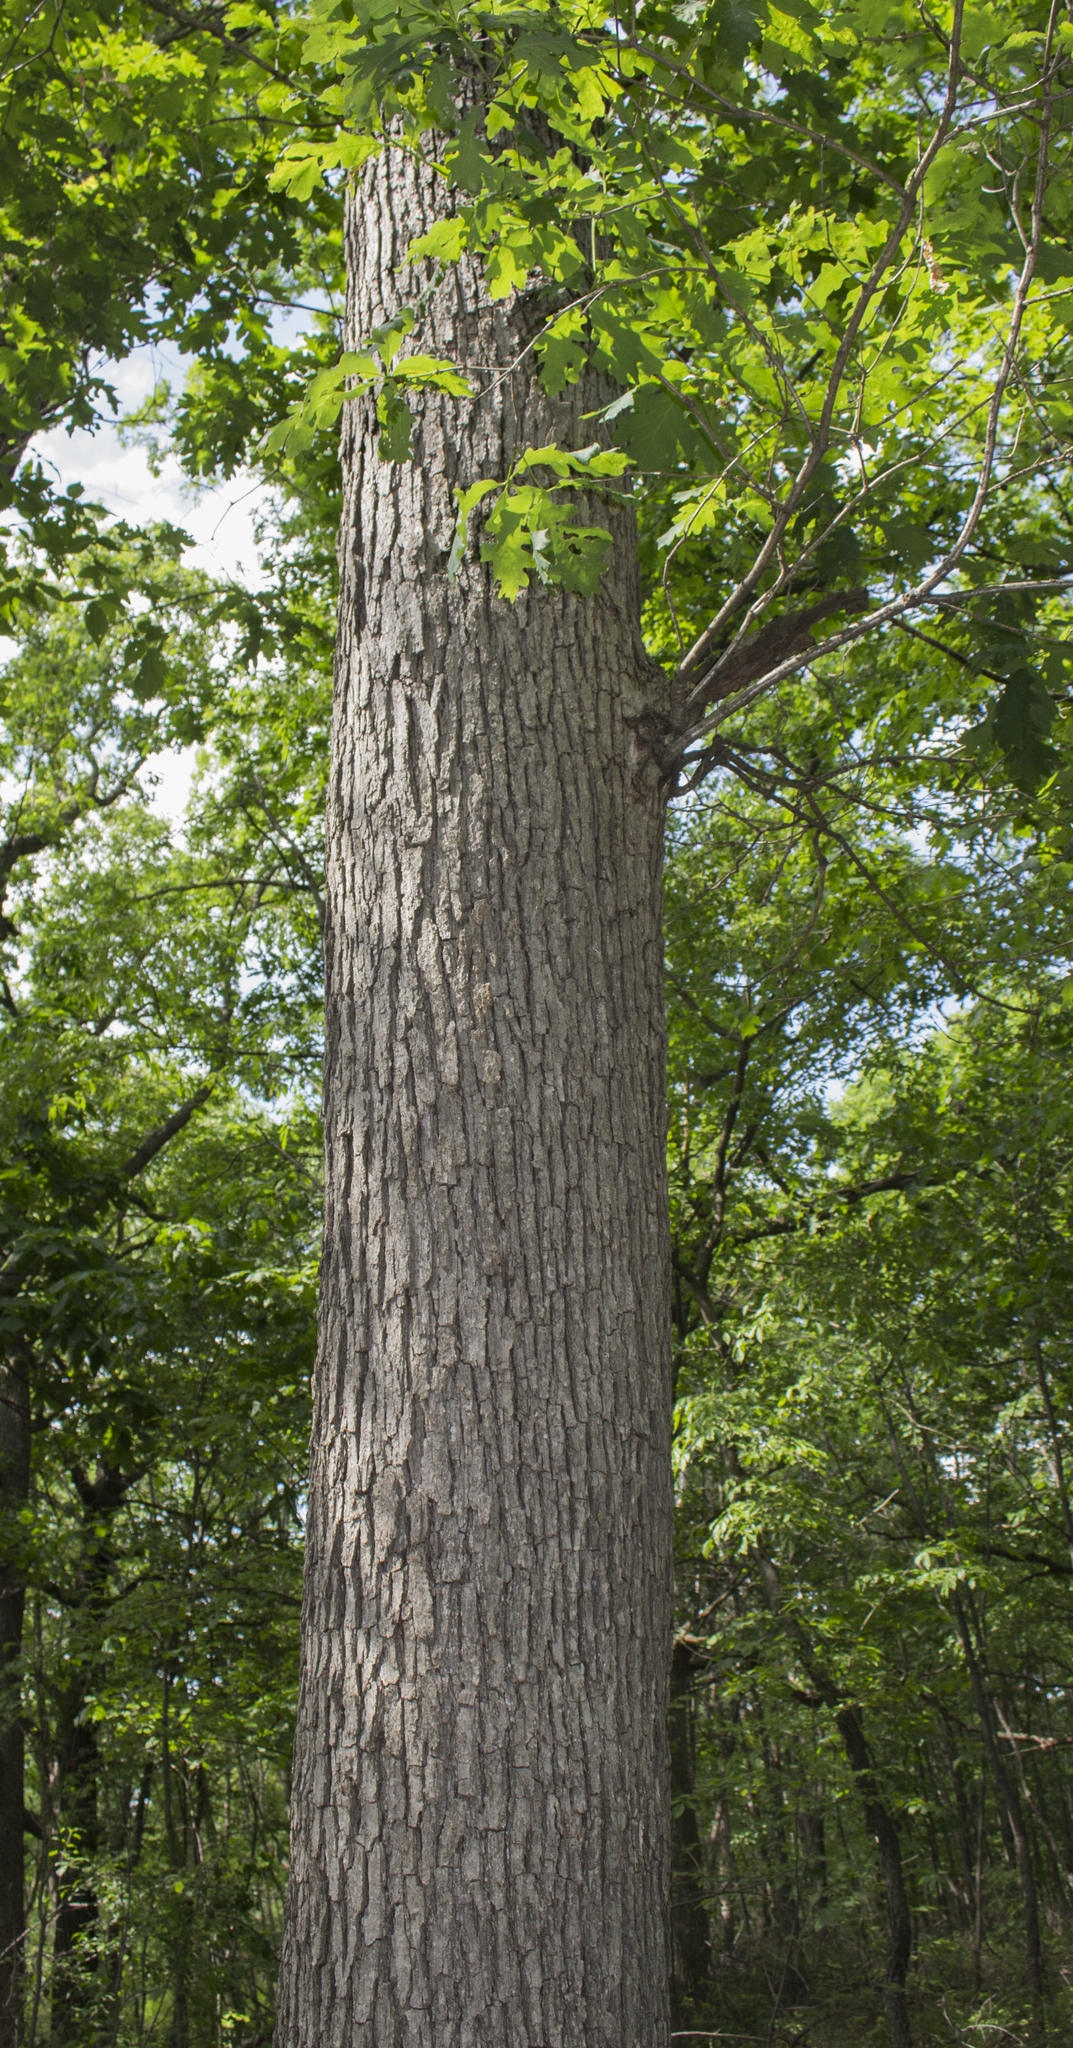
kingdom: Plantae
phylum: Tracheophyta
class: Magnoliopsida
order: Fagales
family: Fagaceae
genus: Quercus
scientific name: Quercus alba
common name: White oak
